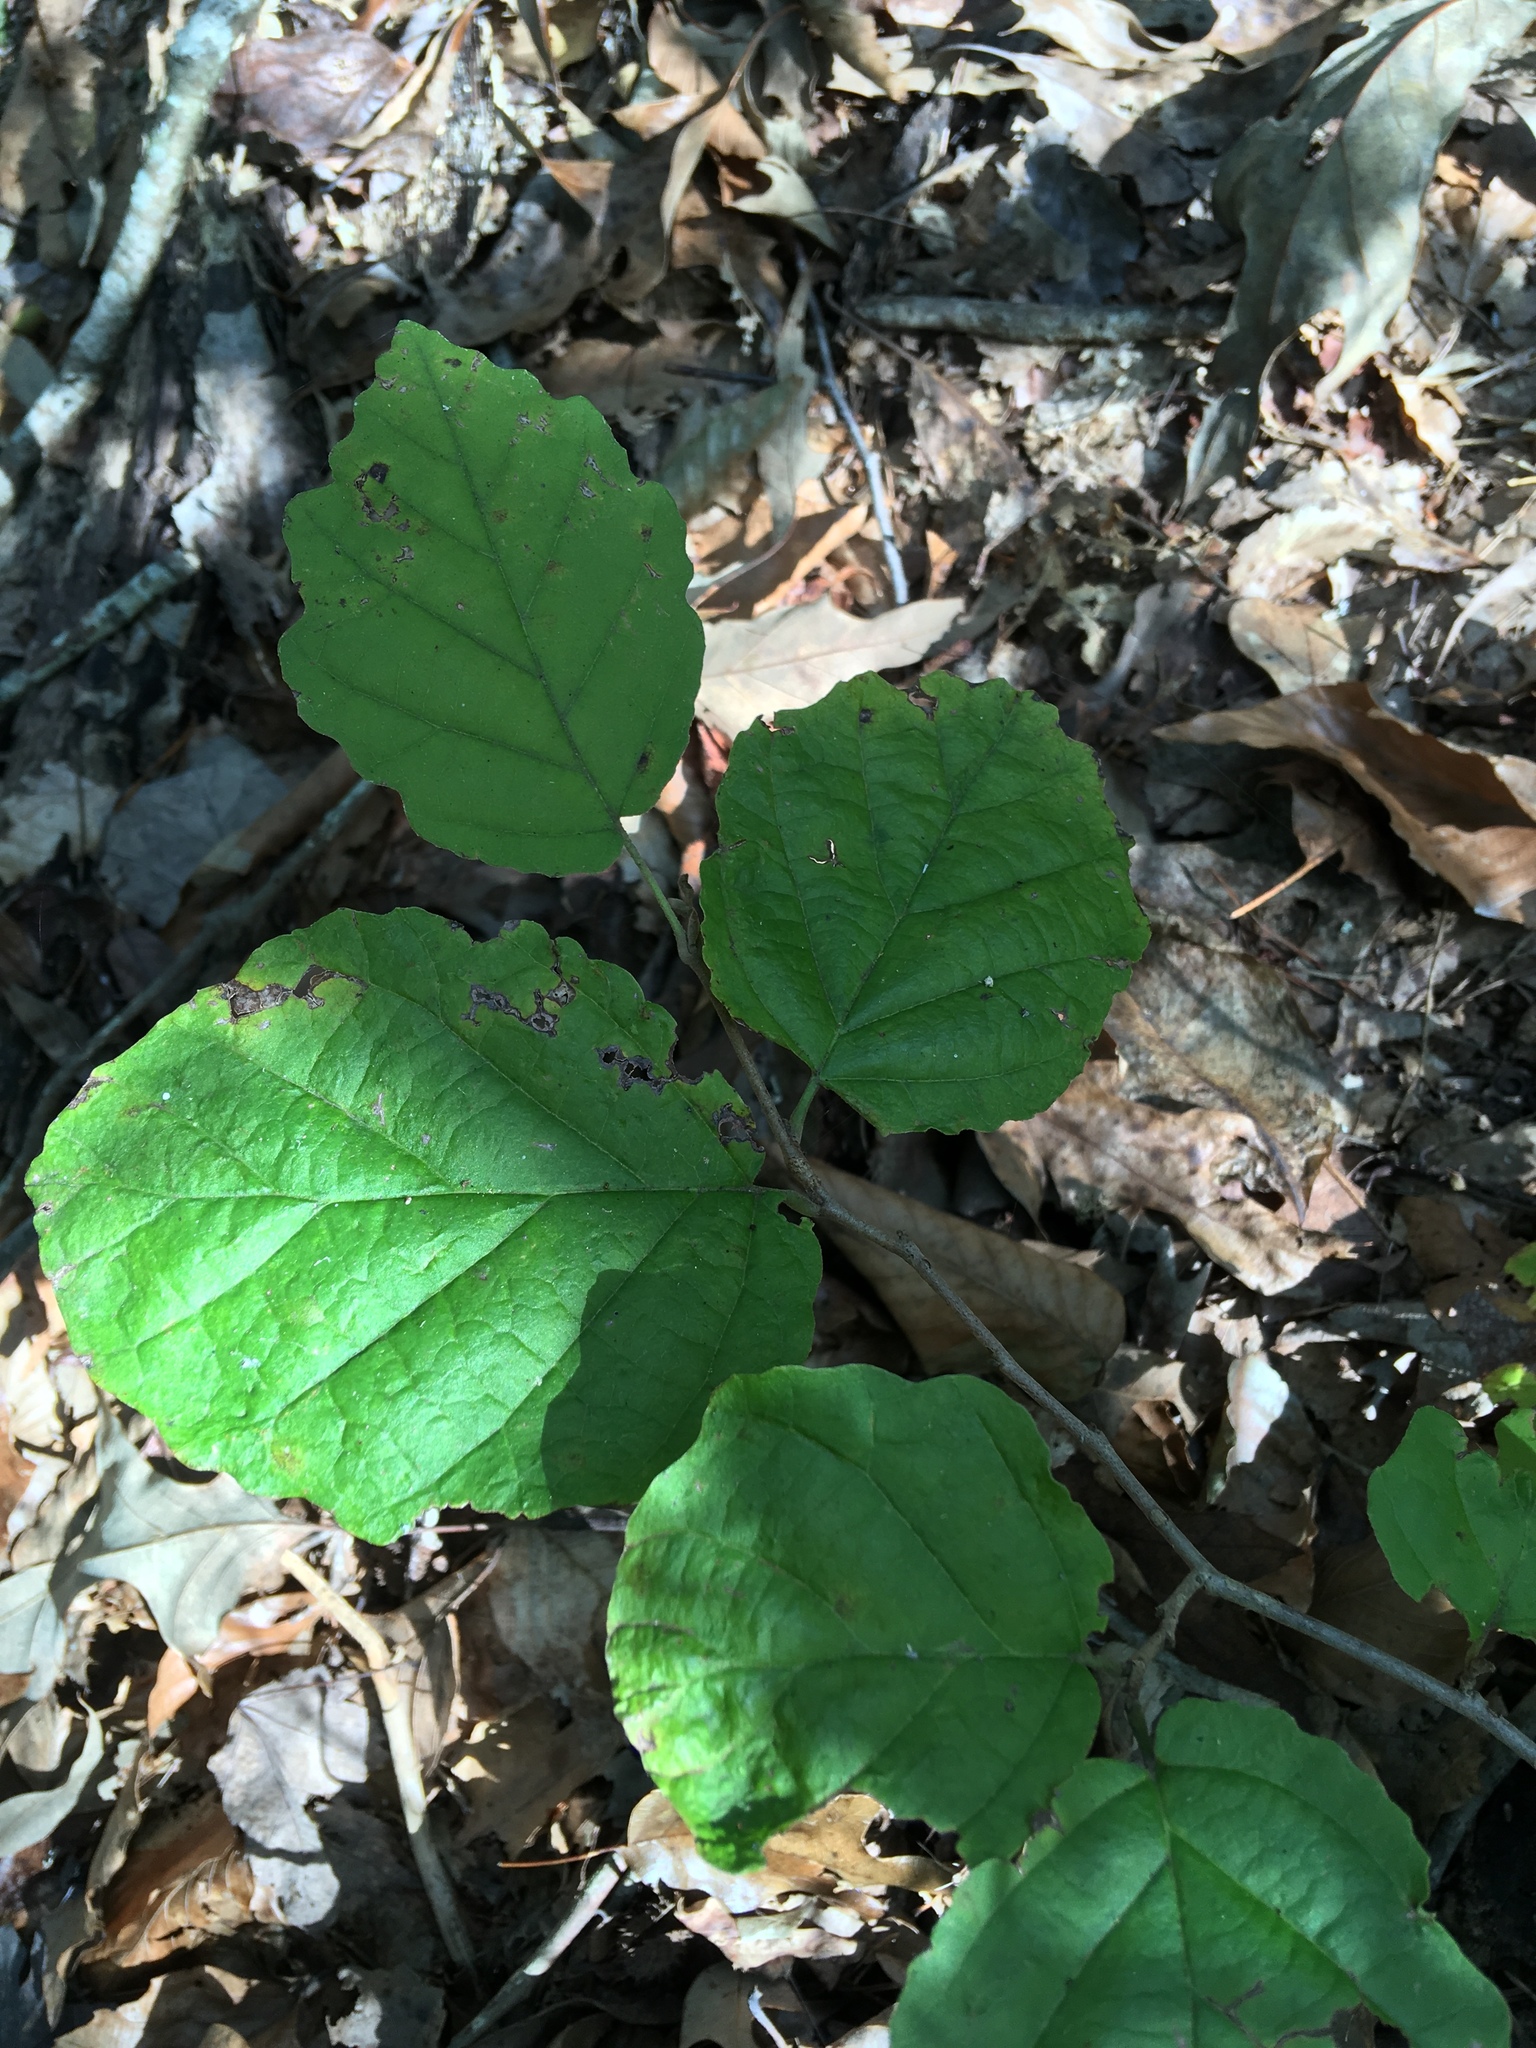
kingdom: Plantae
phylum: Tracheophyta
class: Magnoliopsida
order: Saxifragales
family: Hamamelidaceae
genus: Hamamelis
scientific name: Hamamelis virginiana
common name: Witch-hazel
